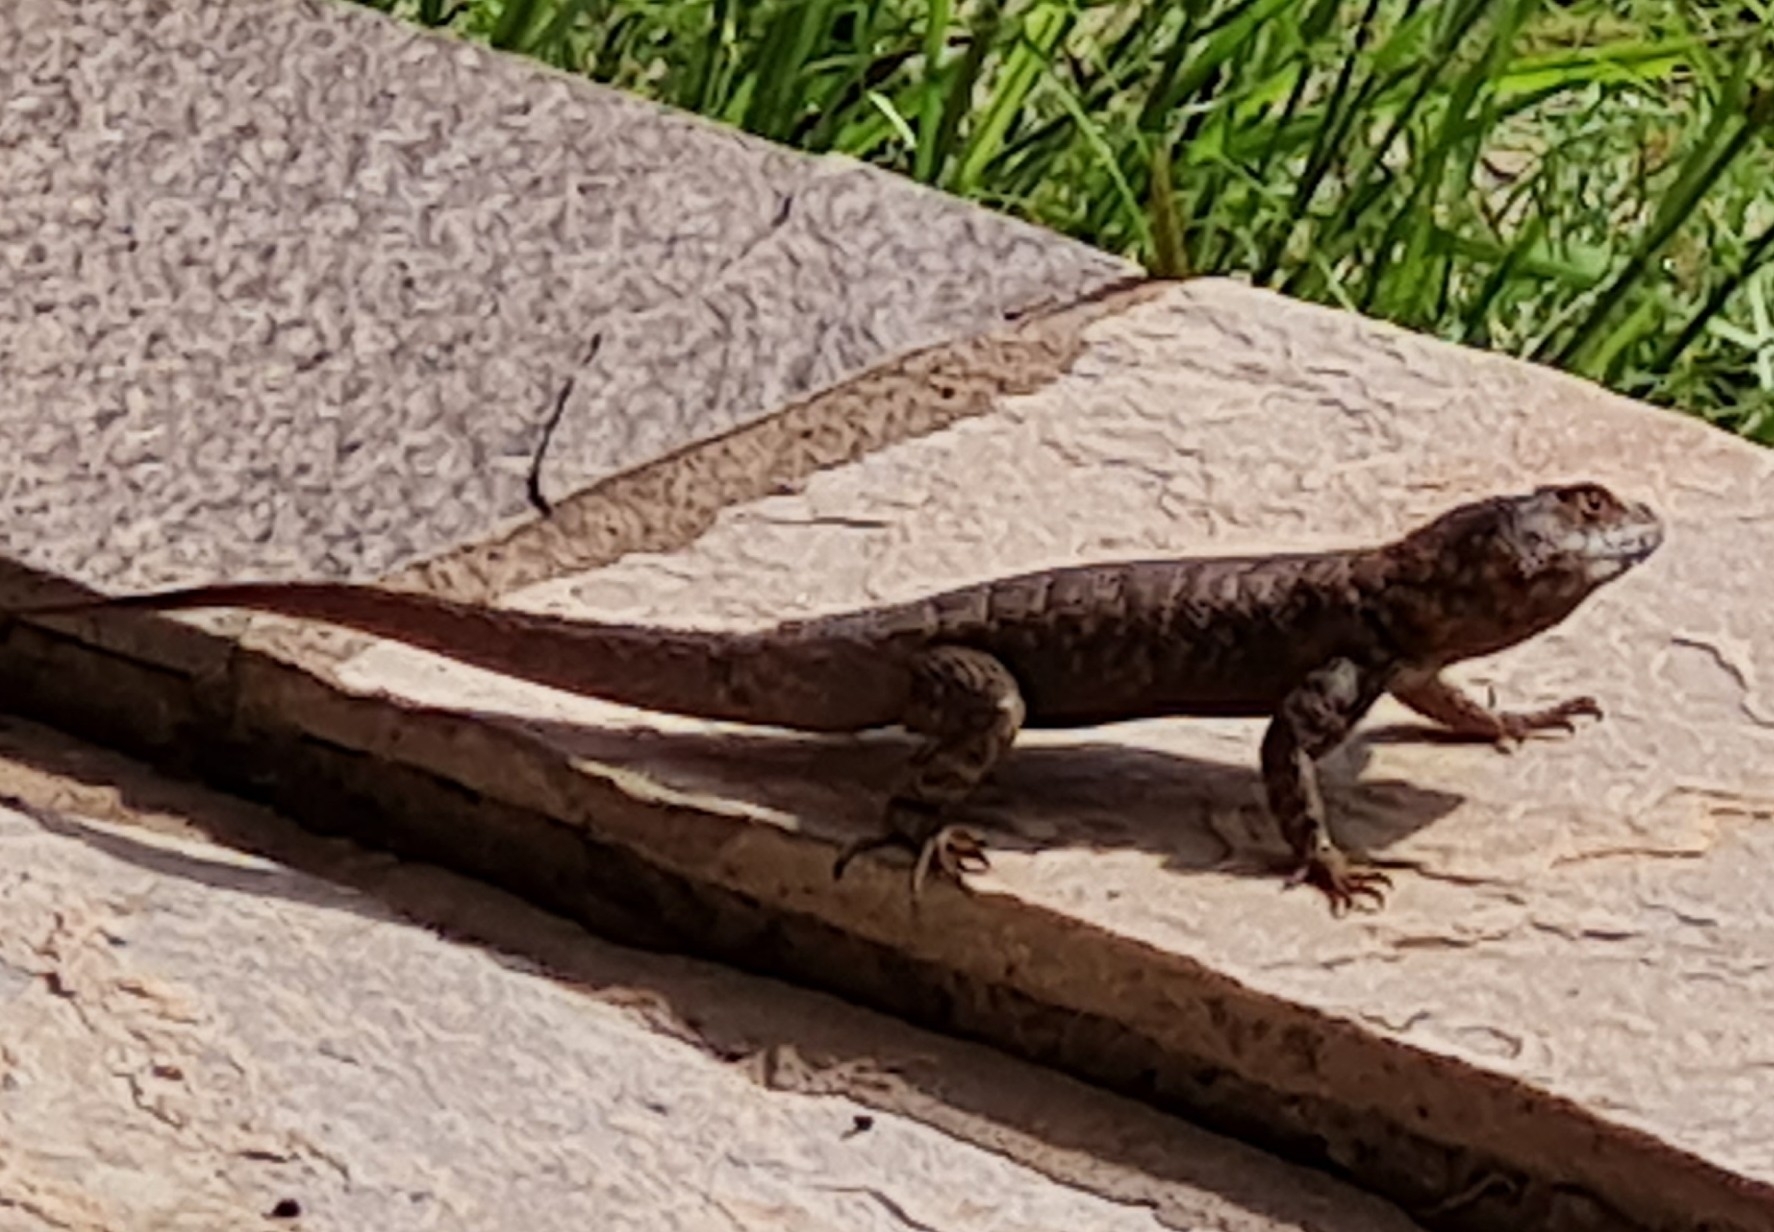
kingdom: Animalia
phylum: Chordata
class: Squamata
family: Tropiduridae
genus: Tropidurus
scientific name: Tropidurus hispidus
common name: Peters' lava lizard
